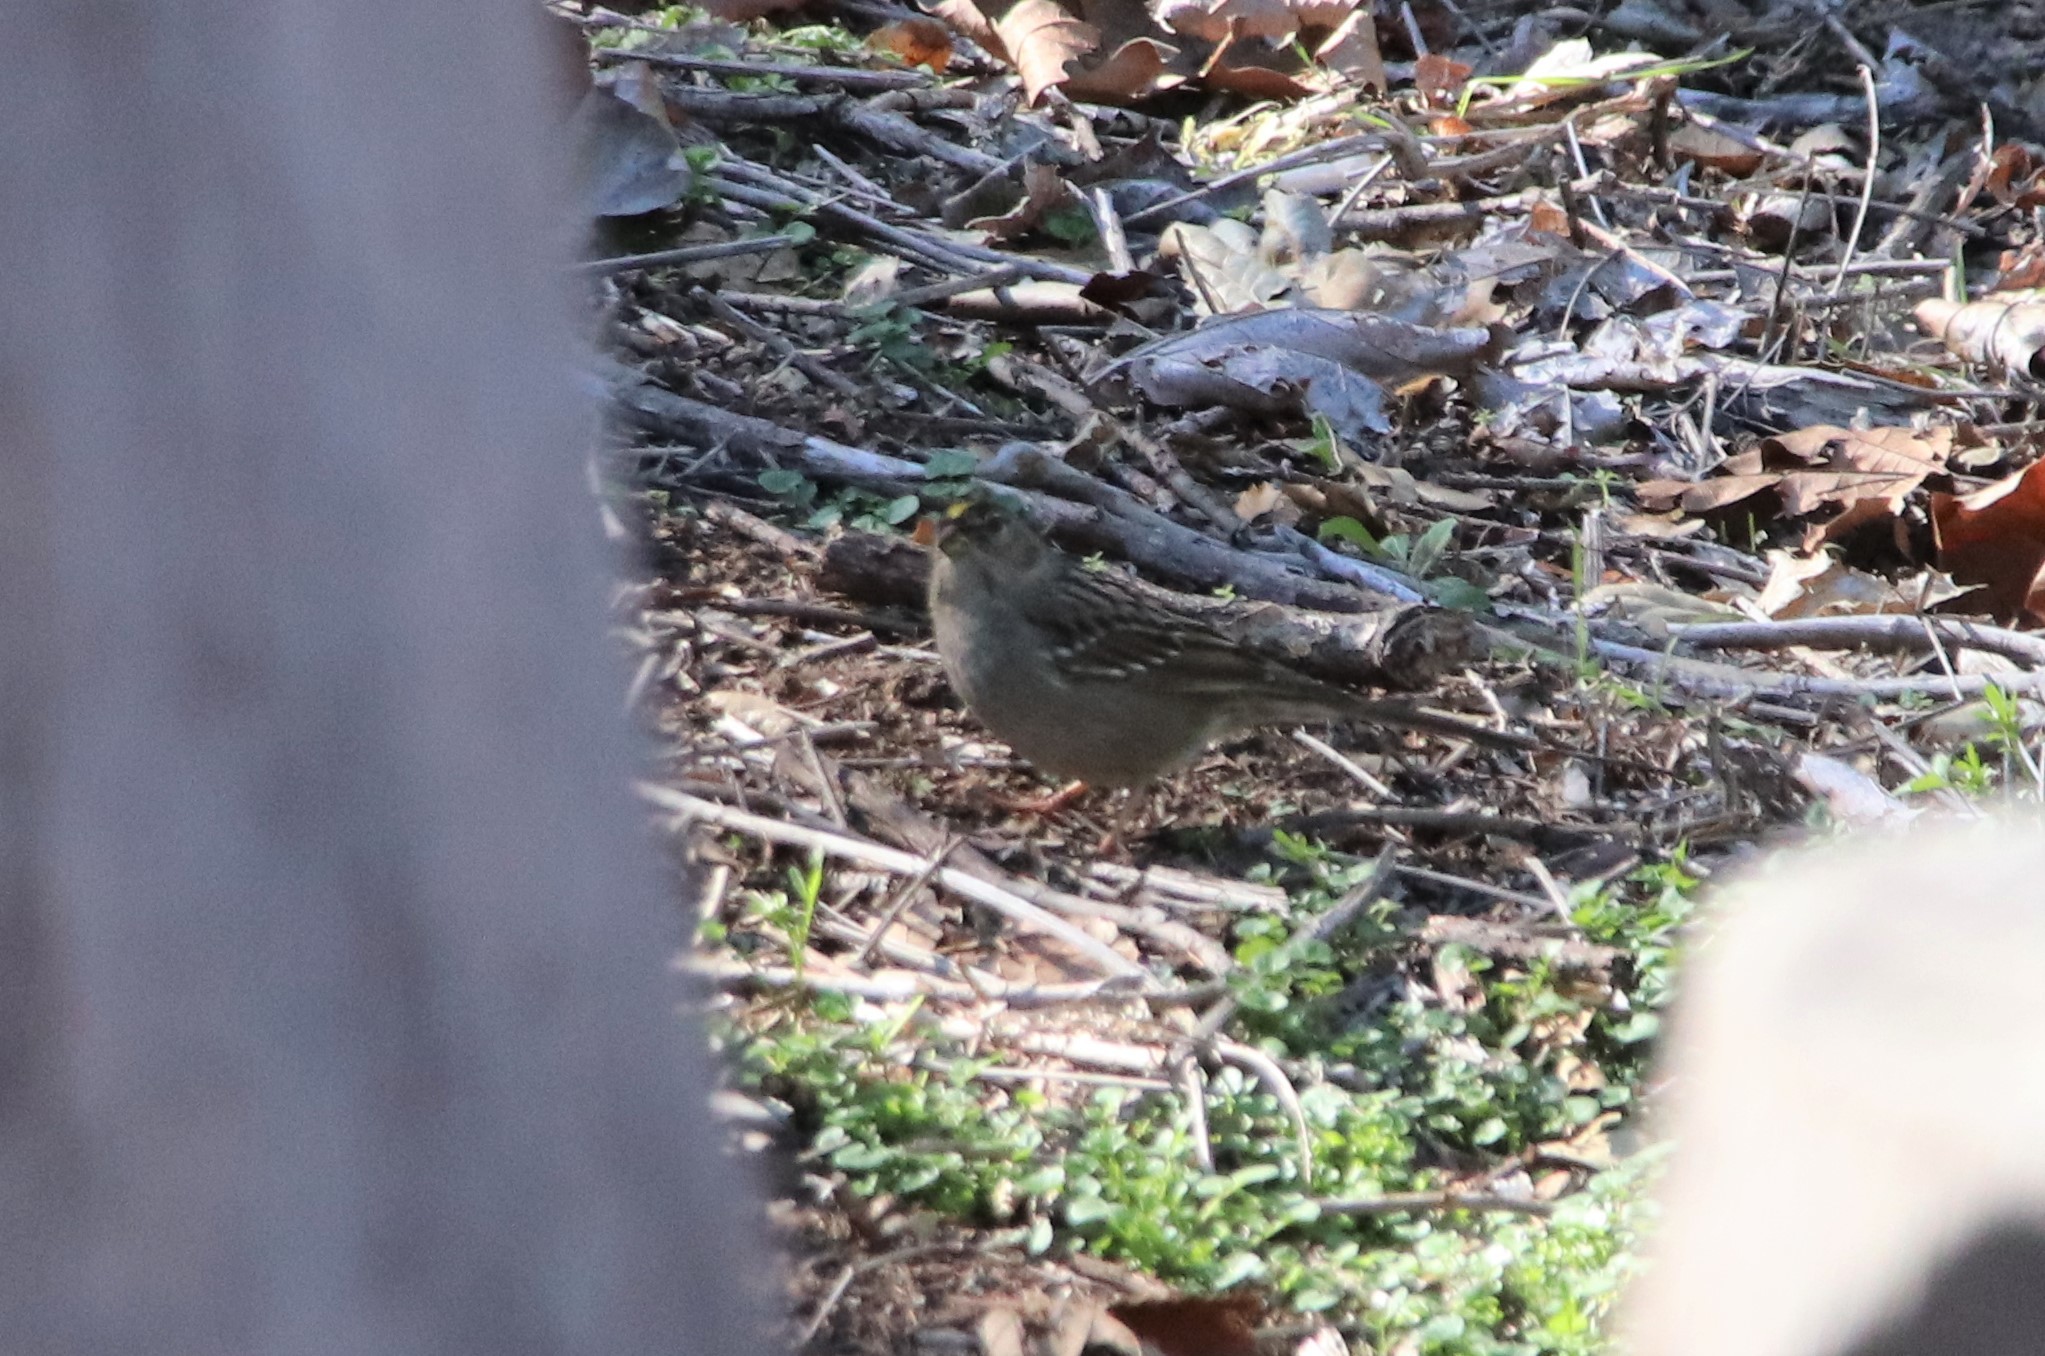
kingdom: Animalia
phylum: Chordata
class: Aves
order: Passeriformes
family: Passerellidae
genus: Zonotrichia
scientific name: Zonotrichia atricapilla
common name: Golden-crowned sparrow
